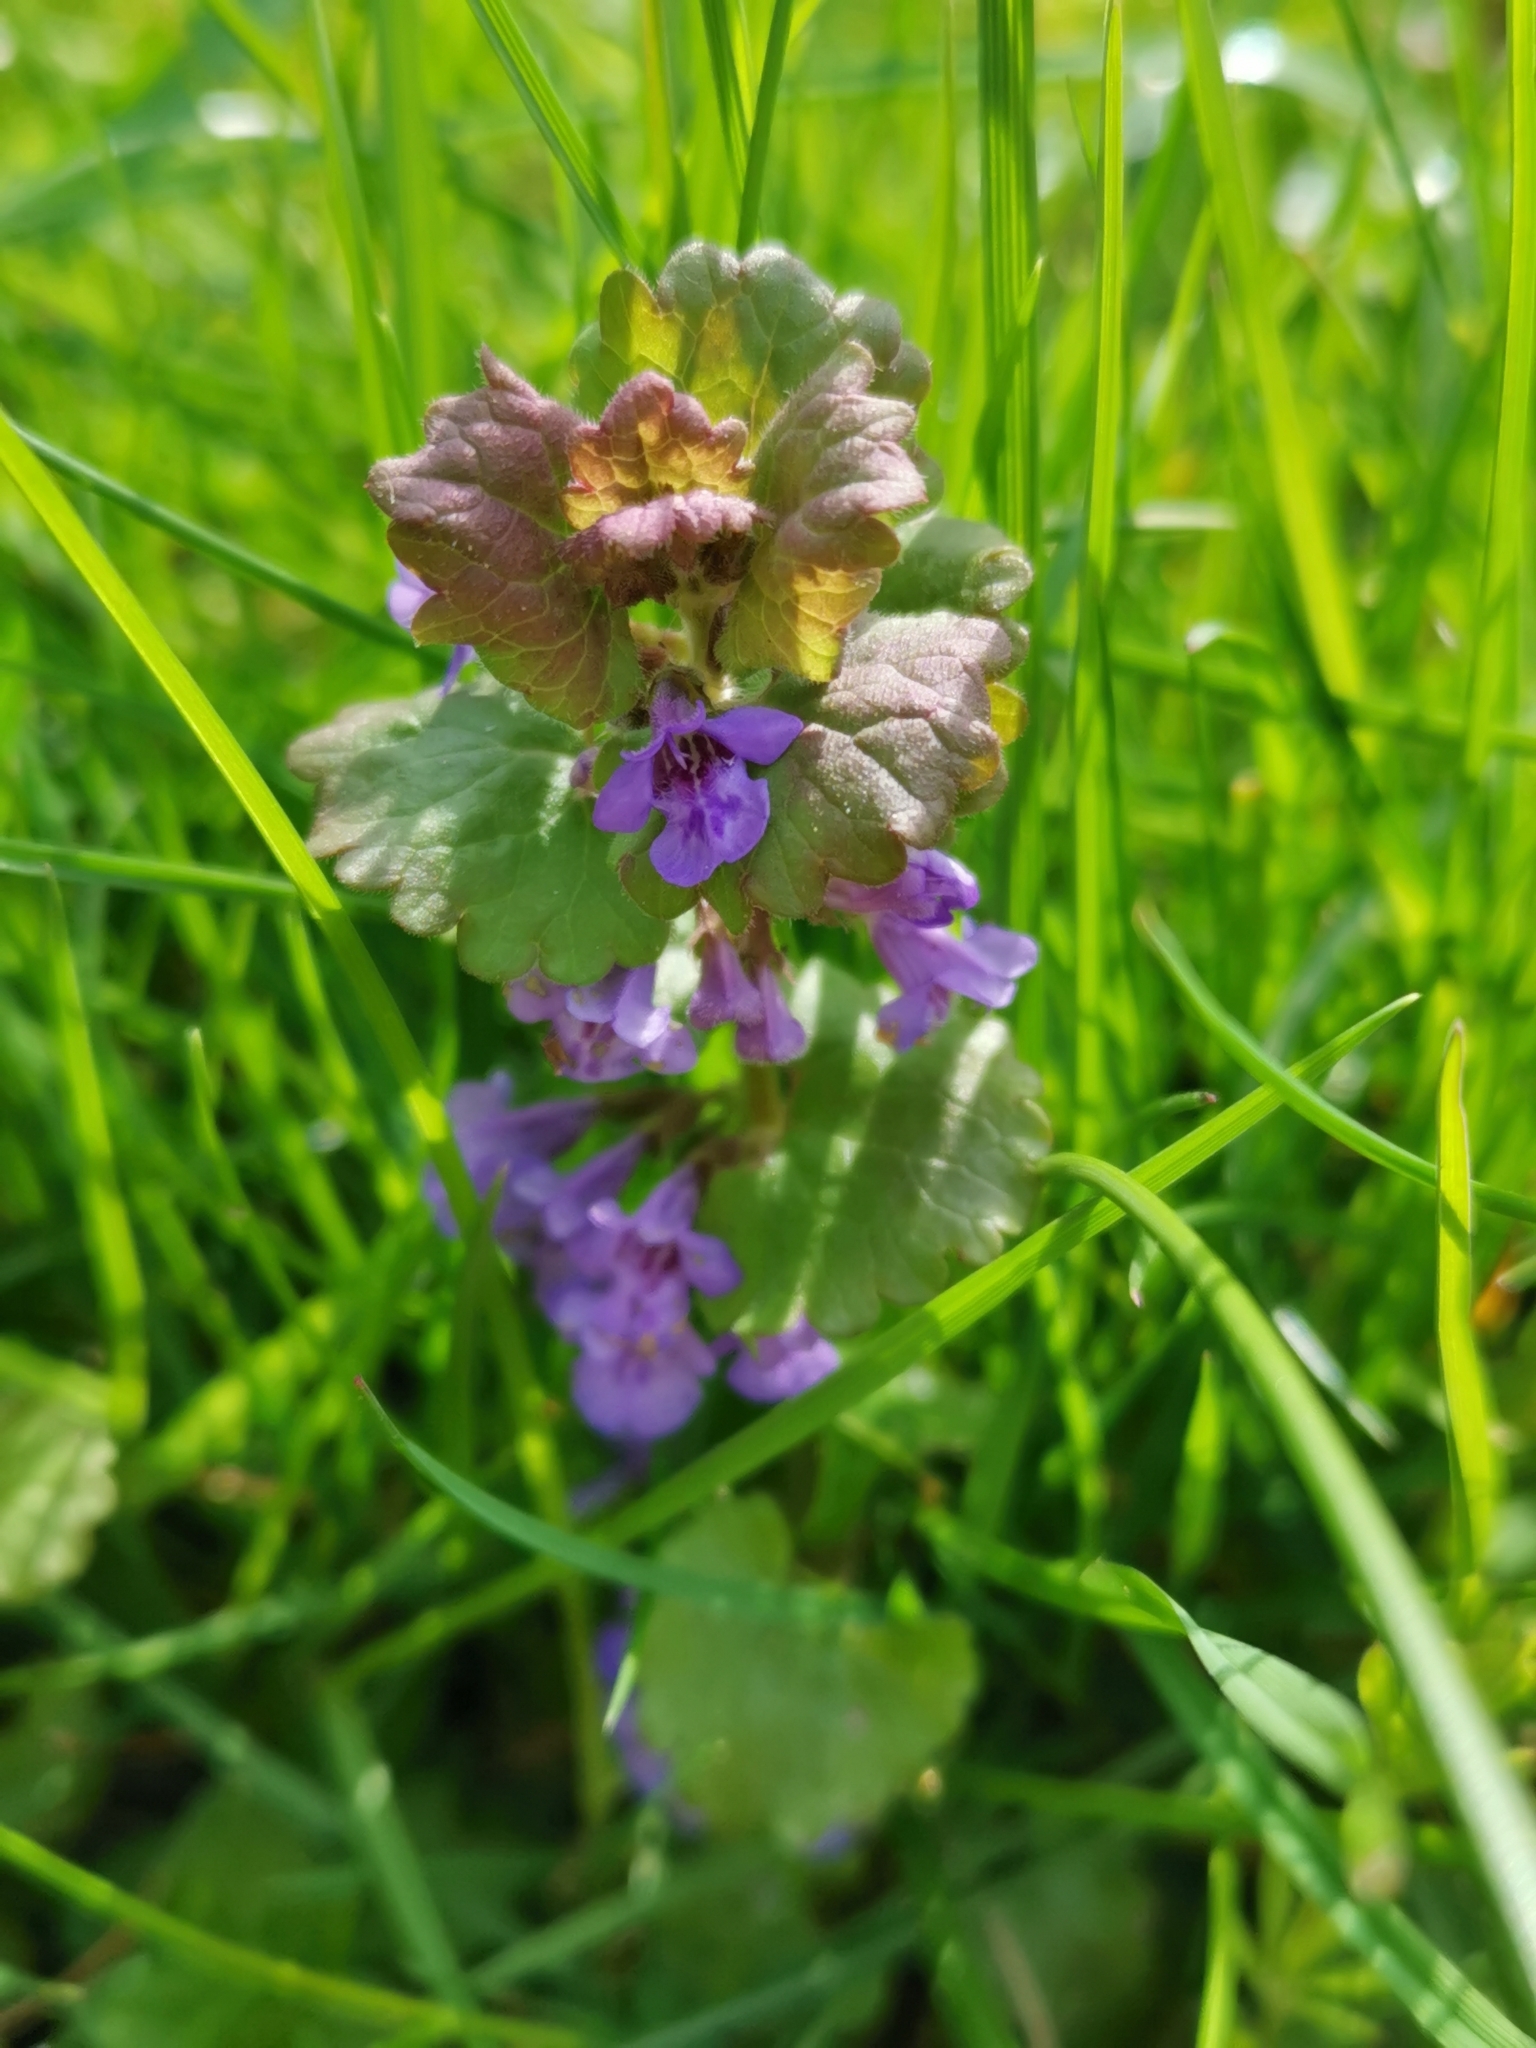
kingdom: Plantae
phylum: Tracheophyta
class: Magnoliopsida
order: Lamiales
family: Lamiaceae
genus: Glechoma
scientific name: Glechoma hederacea
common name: Ground ivy
